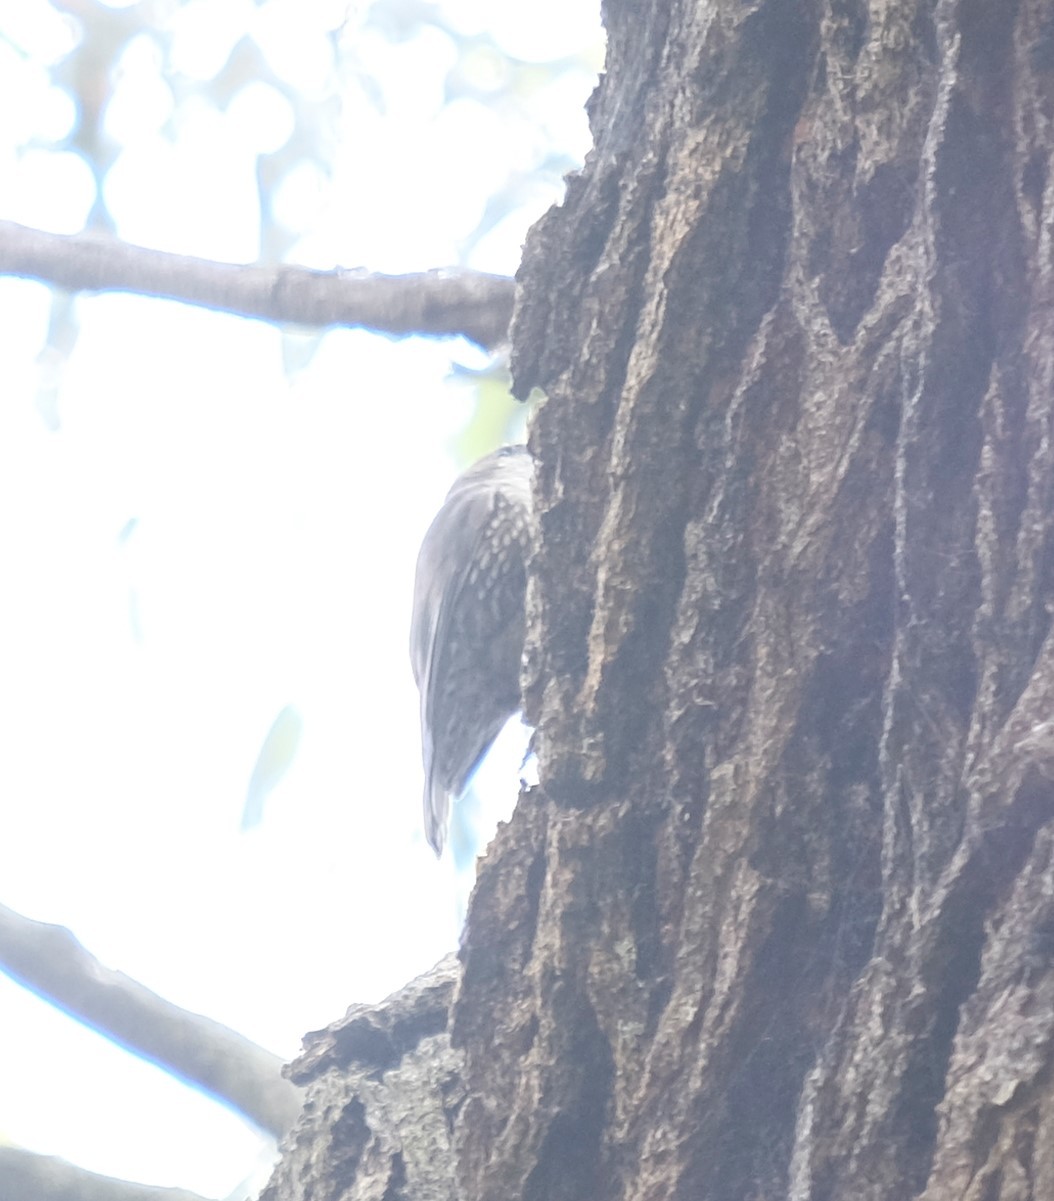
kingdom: Animalia
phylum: Chordata
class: Aves
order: Passeriformes
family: Climacteridae
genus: Cormobates
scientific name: Cormobates leucophaea
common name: White-throated treecreeper
